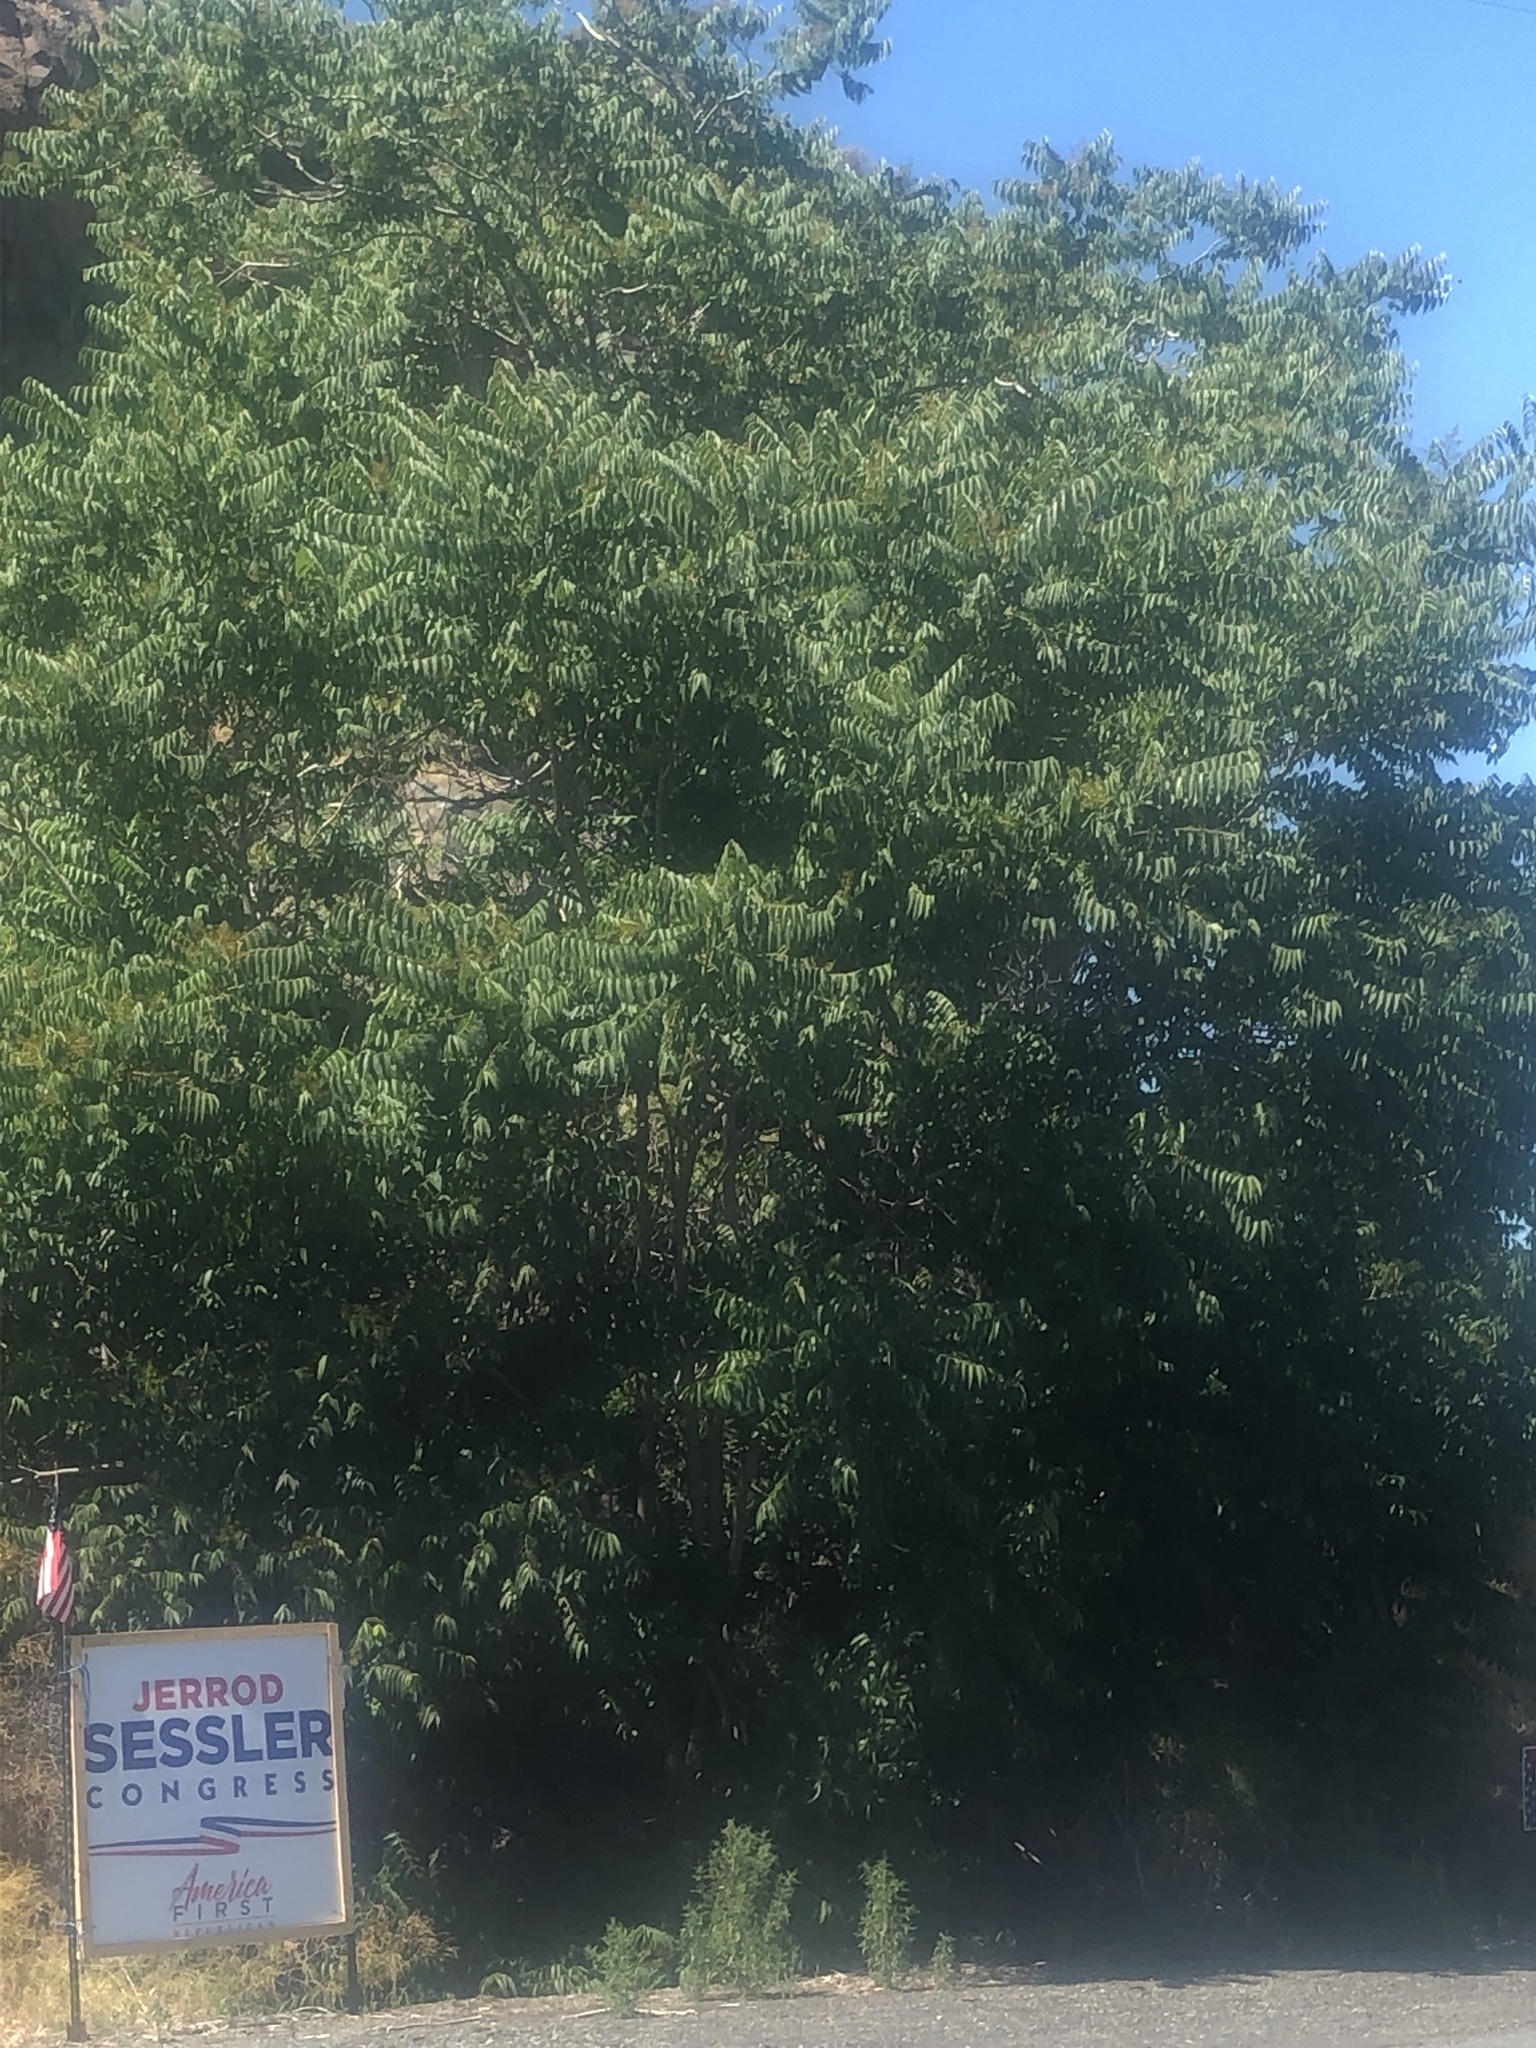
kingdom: Plantae
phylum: Tracheophyta
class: Magnoliopsida
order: Sapindales
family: Simaroubaceae
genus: Ailanthus
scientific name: Ailanthus altissima
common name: Tree-of-heaven
